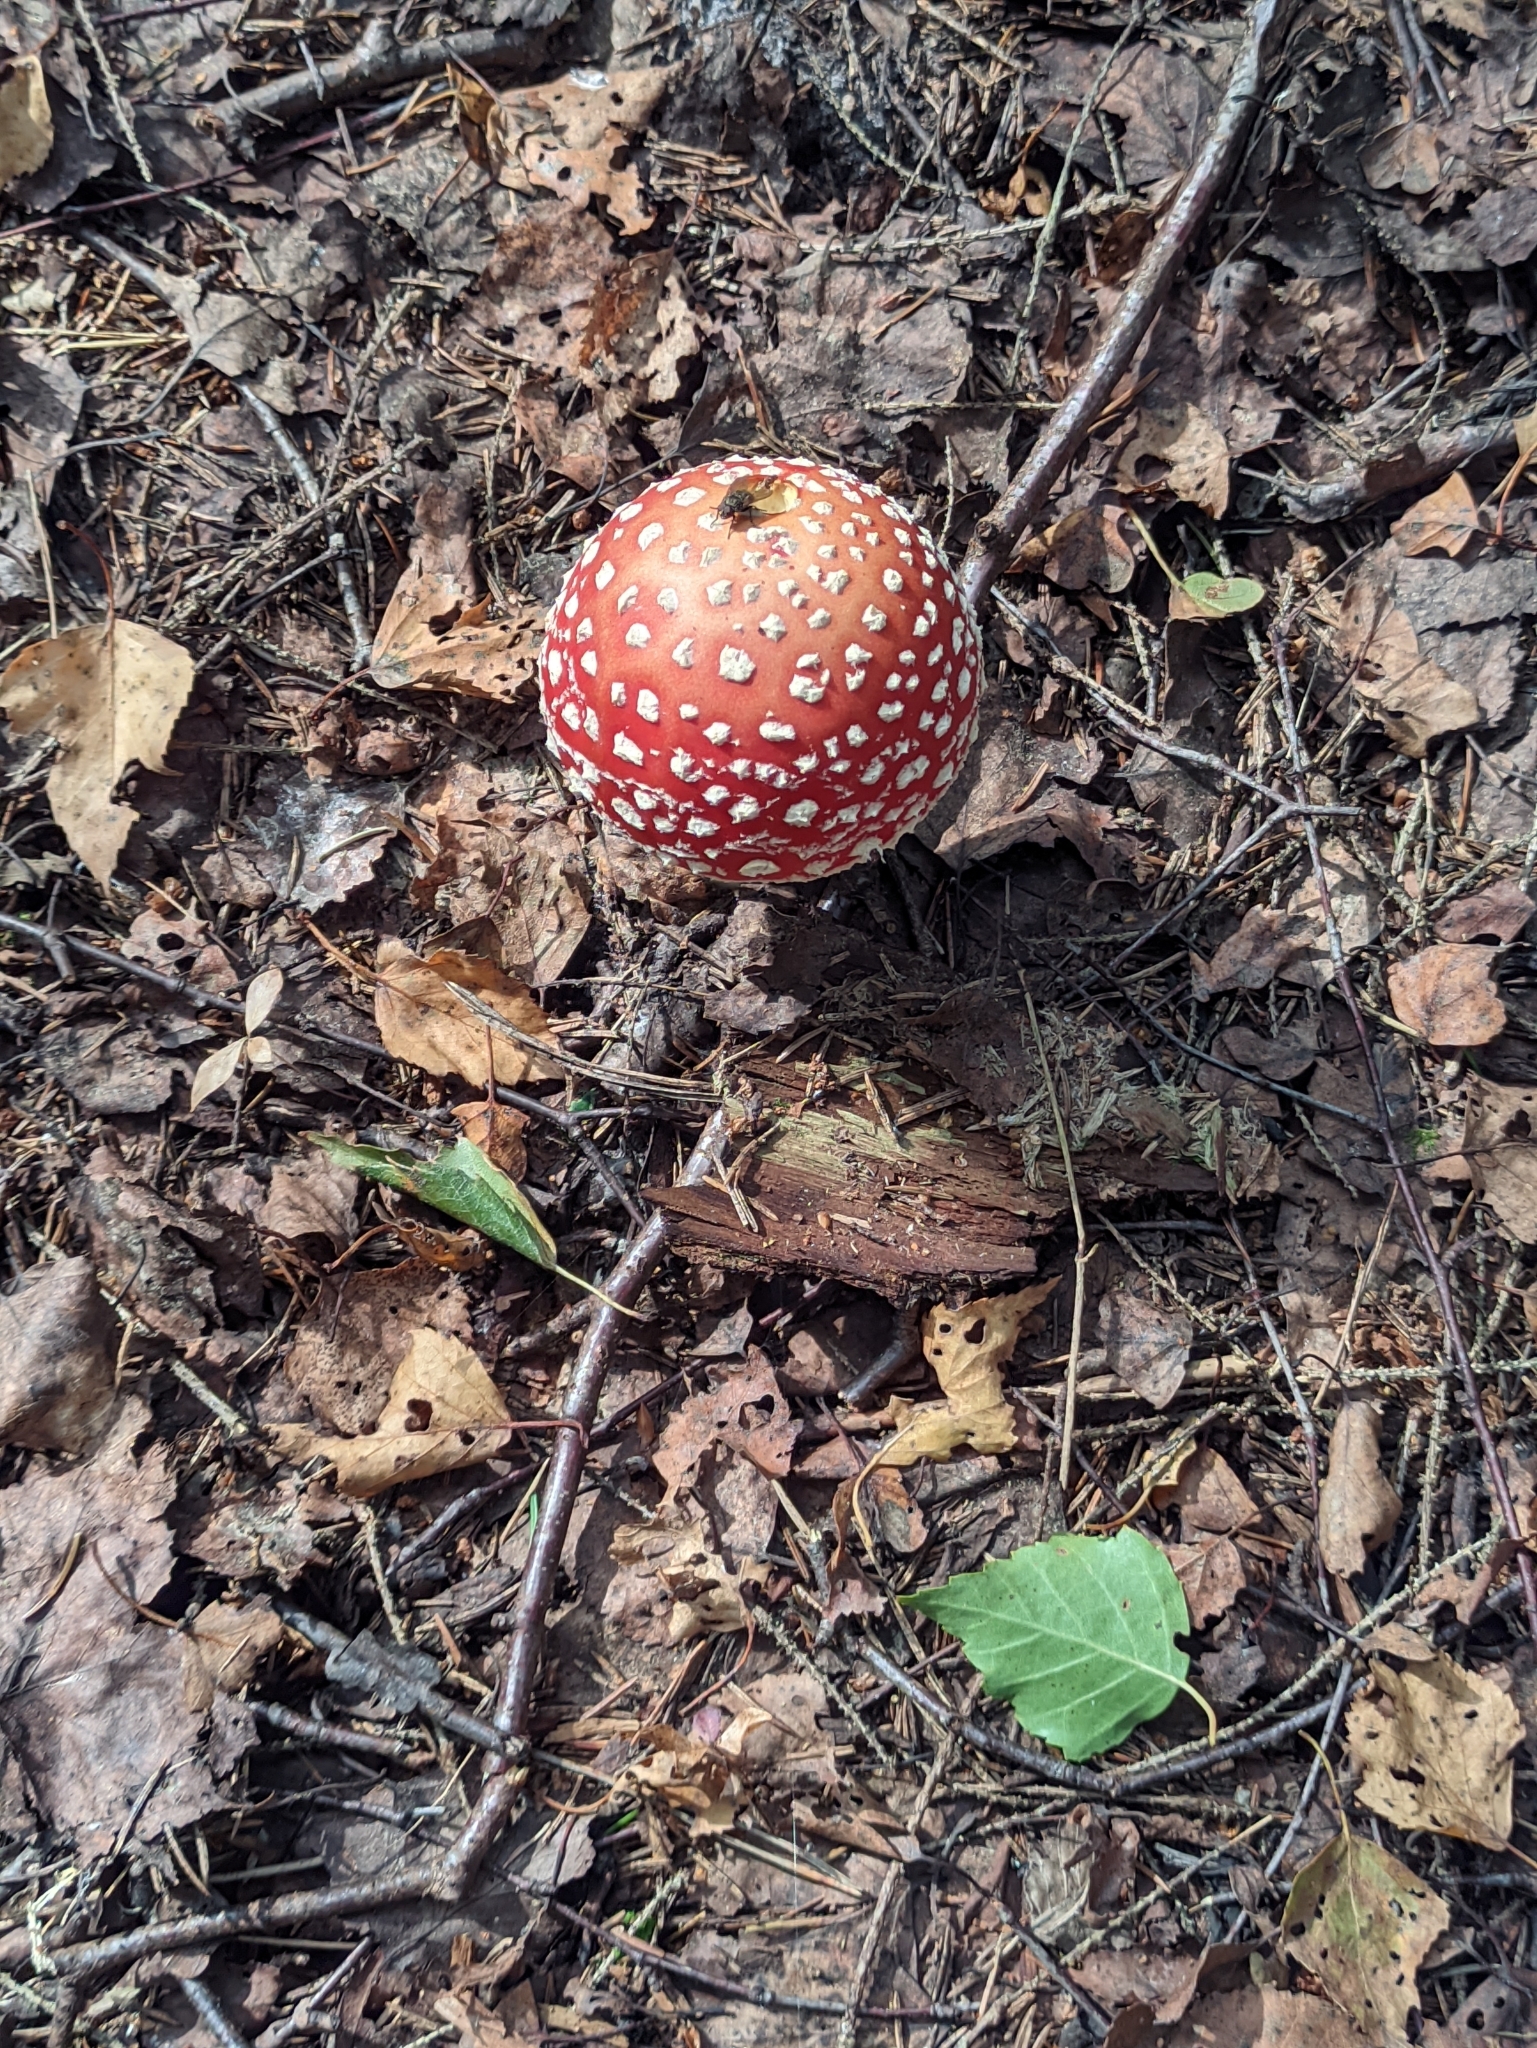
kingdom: Fungi
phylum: Basidiomycota
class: Agaricomycetes
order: Agaricales
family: Amanitaceae
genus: Amanita
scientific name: Amanita muscaria
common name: Fly agaric
